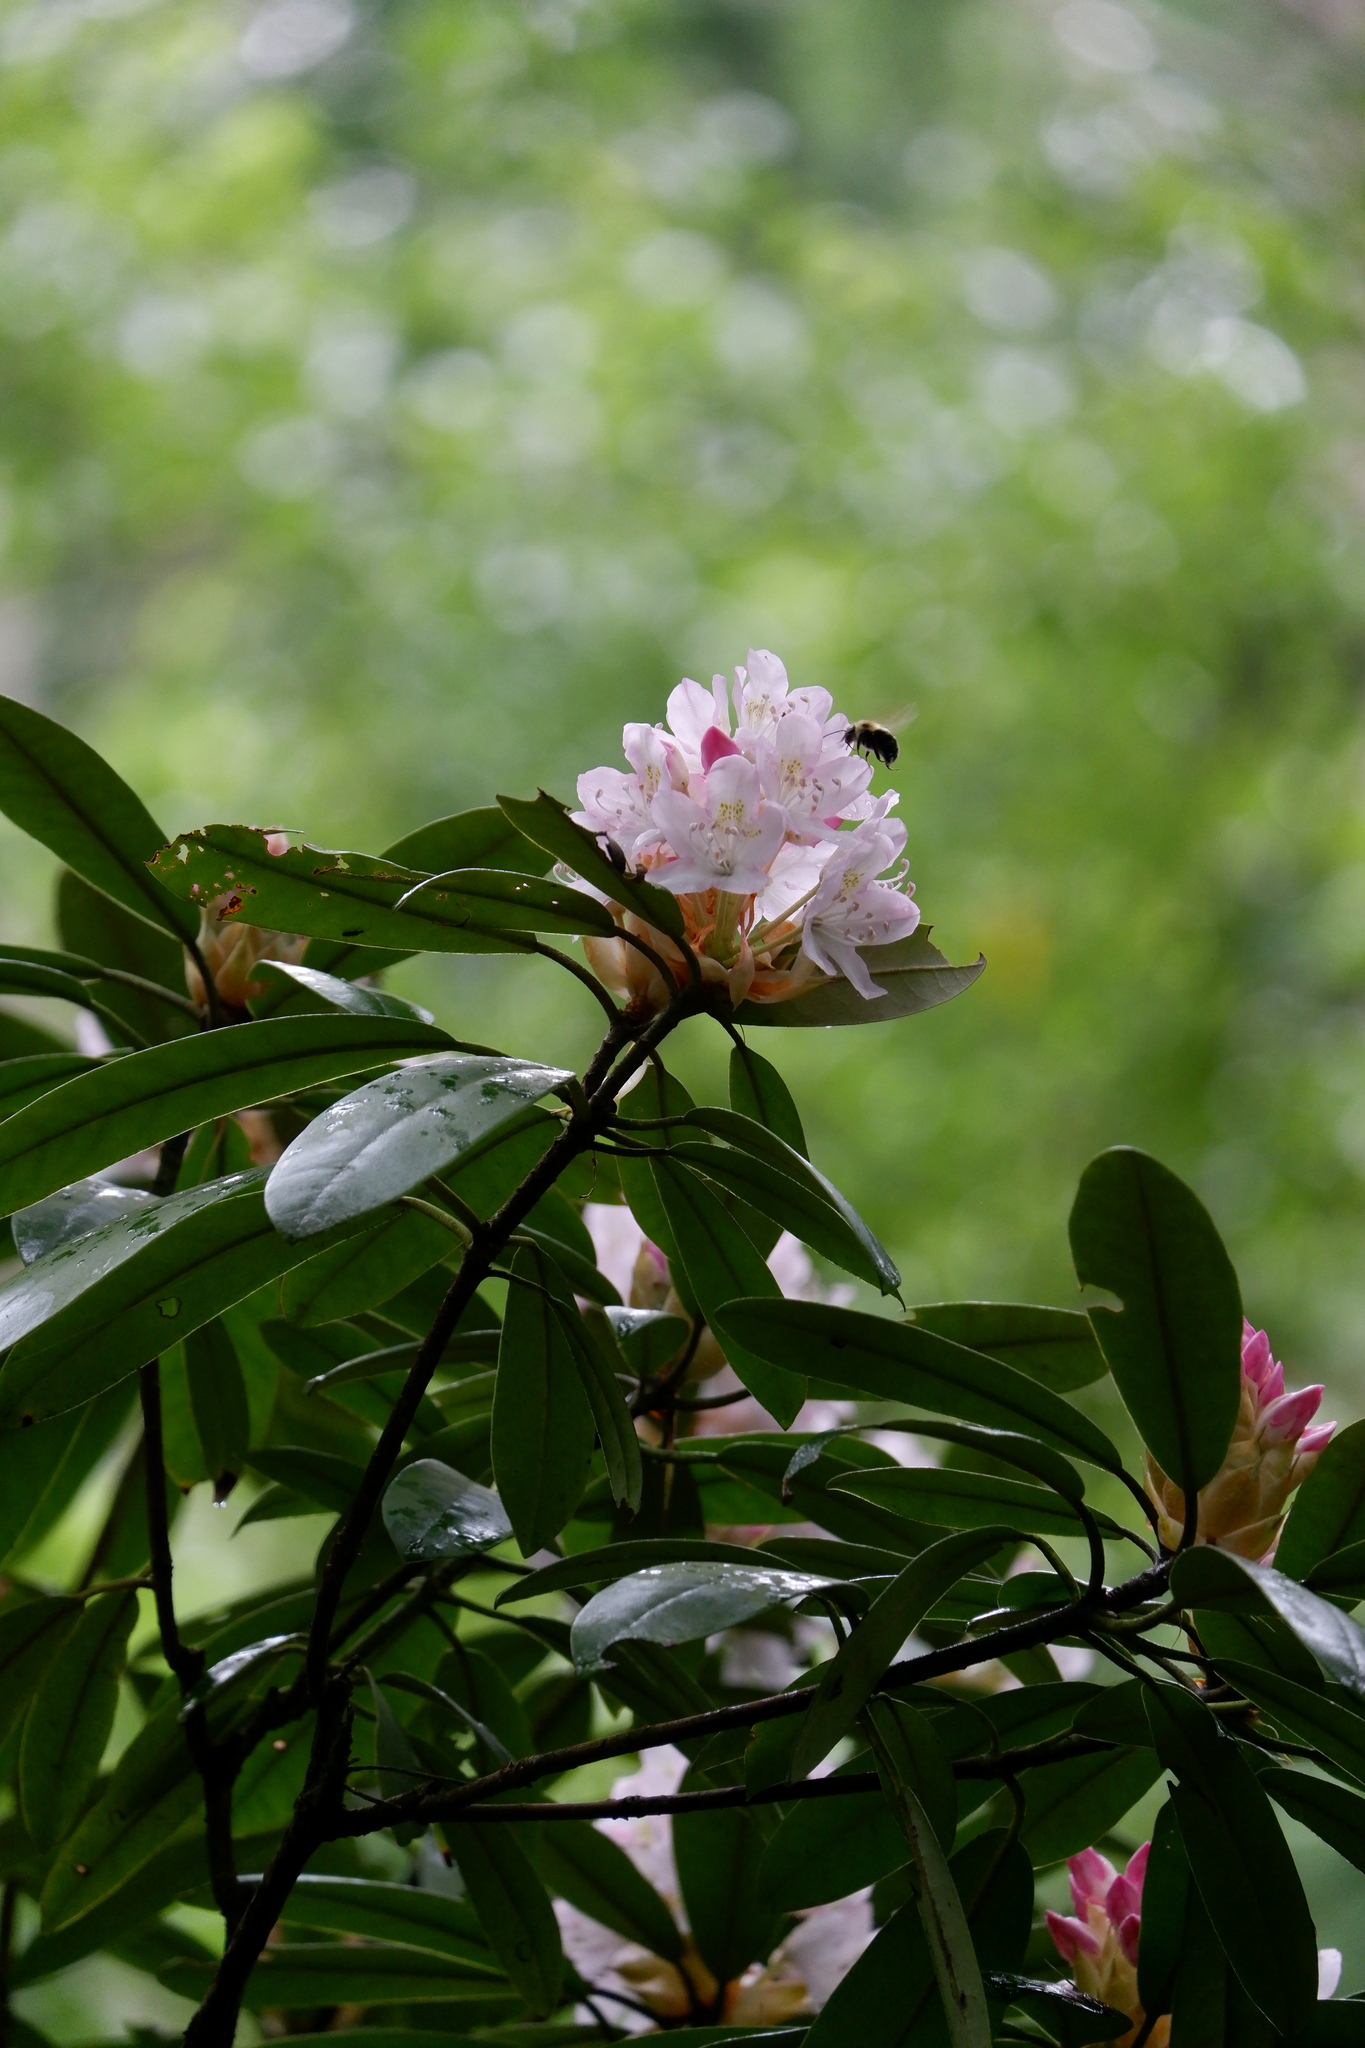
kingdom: Plantae
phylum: Tracheophyta
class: Magnoliopsida
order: Ericales
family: Ericaceae
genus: Rhododendron
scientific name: Rhododendron maximum
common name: Great rhododendron
